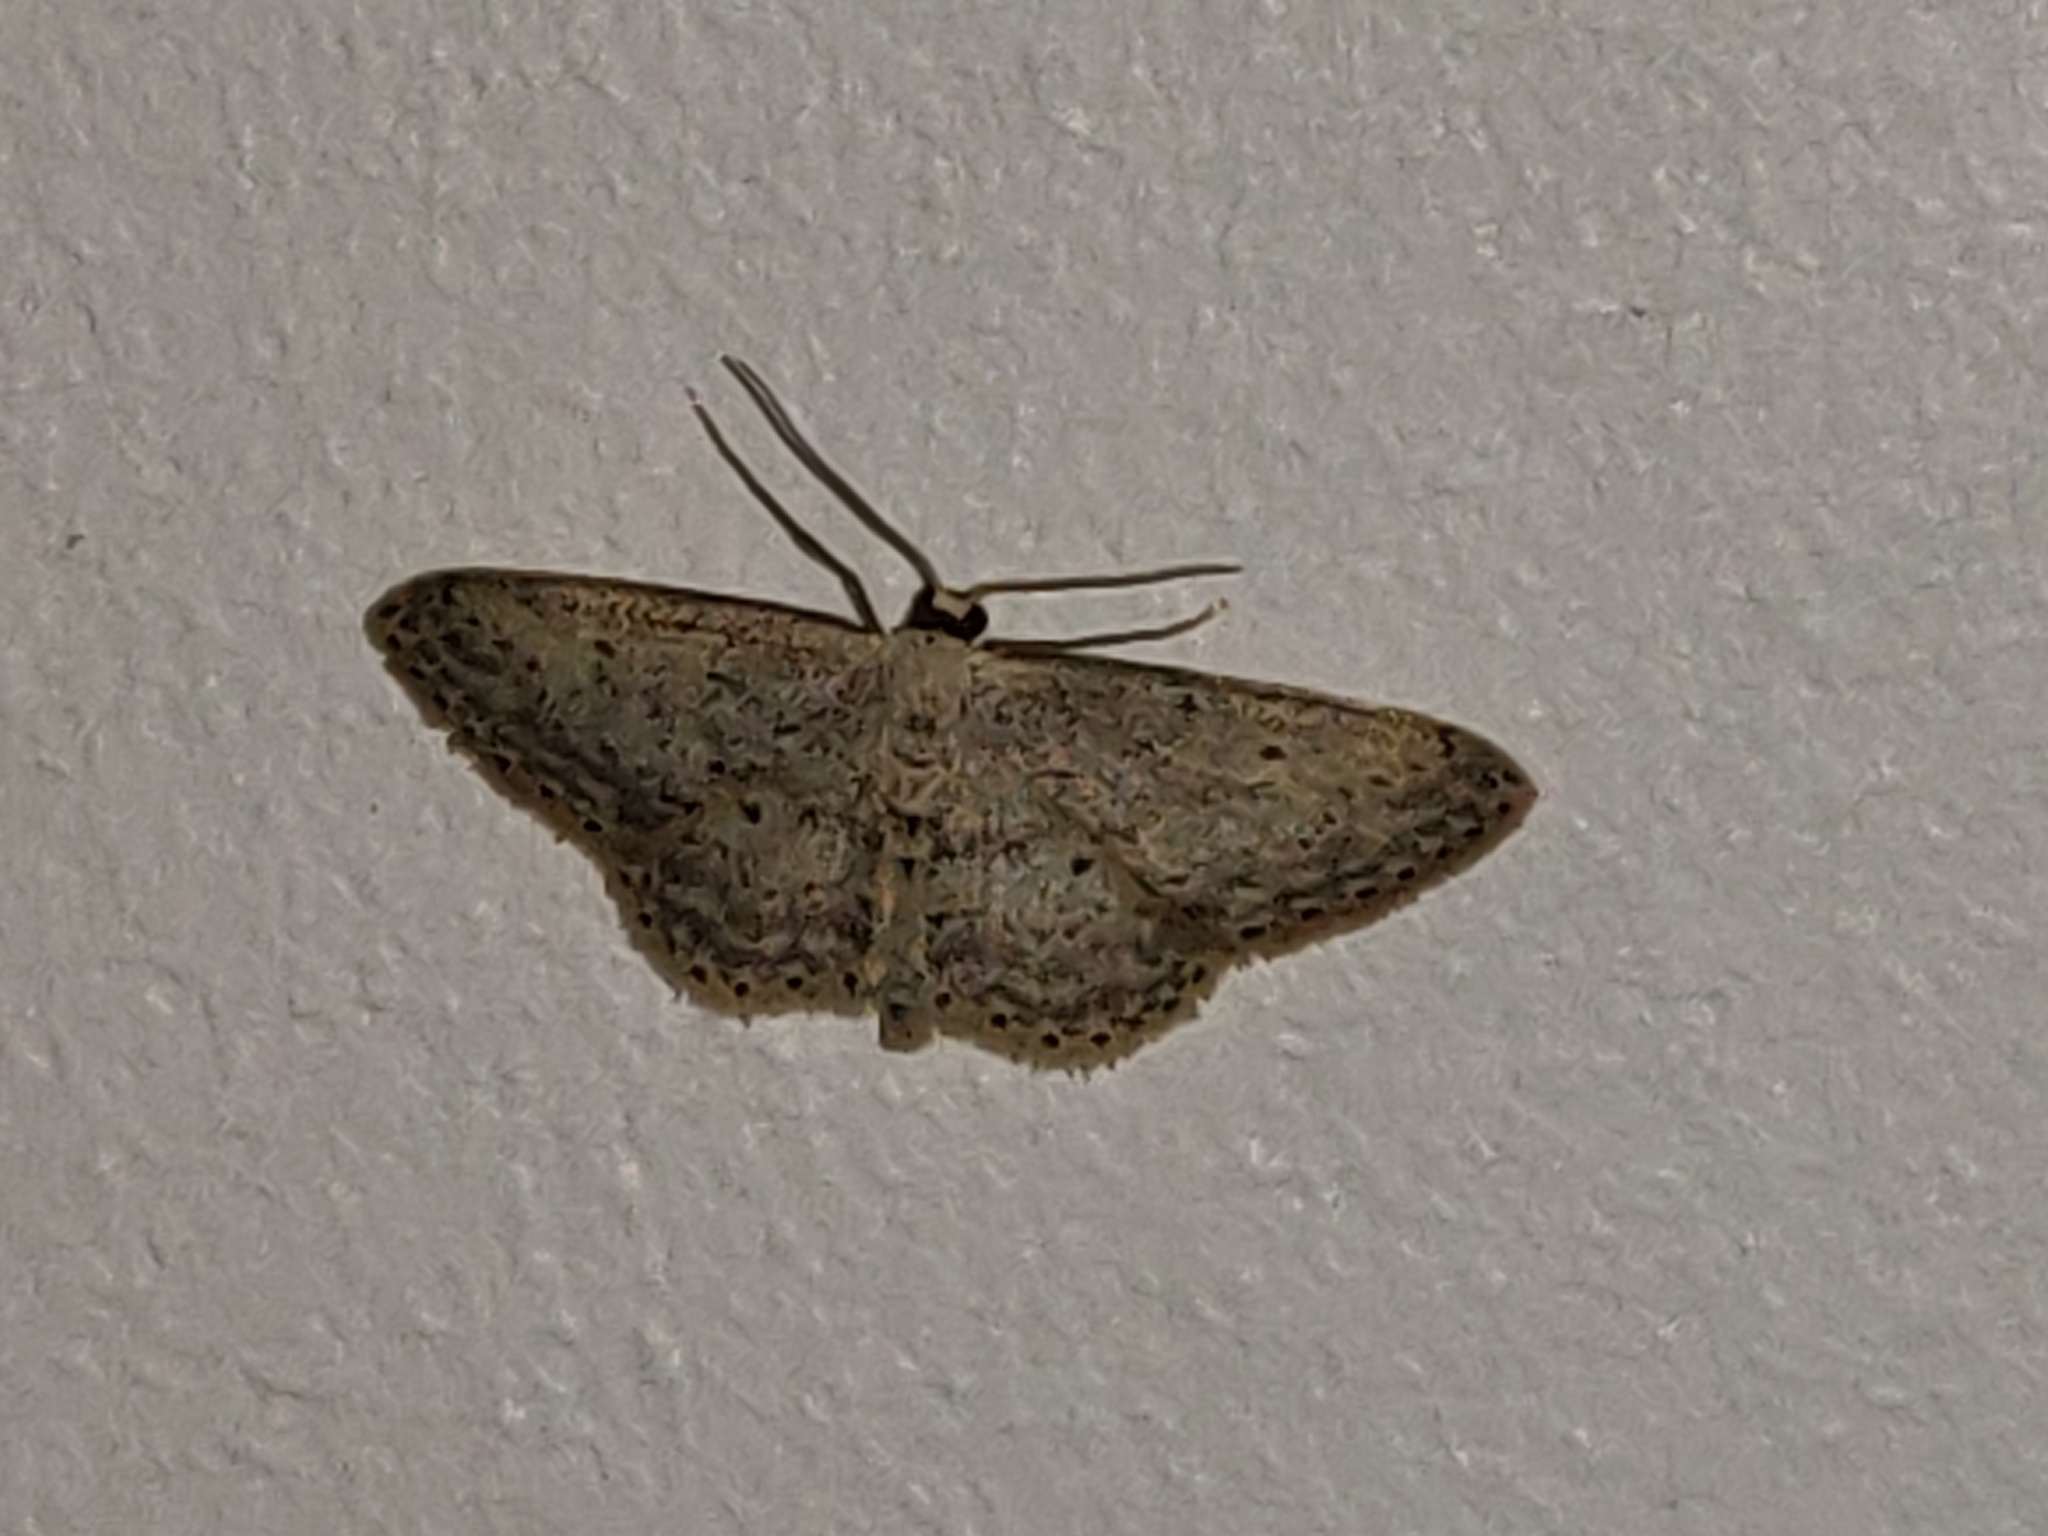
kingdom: Animalia
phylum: Arthropoda
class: Insecta
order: Lepidoptera
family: Geometridae
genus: Idaea
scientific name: Idaea seriata
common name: Small dusty wave
